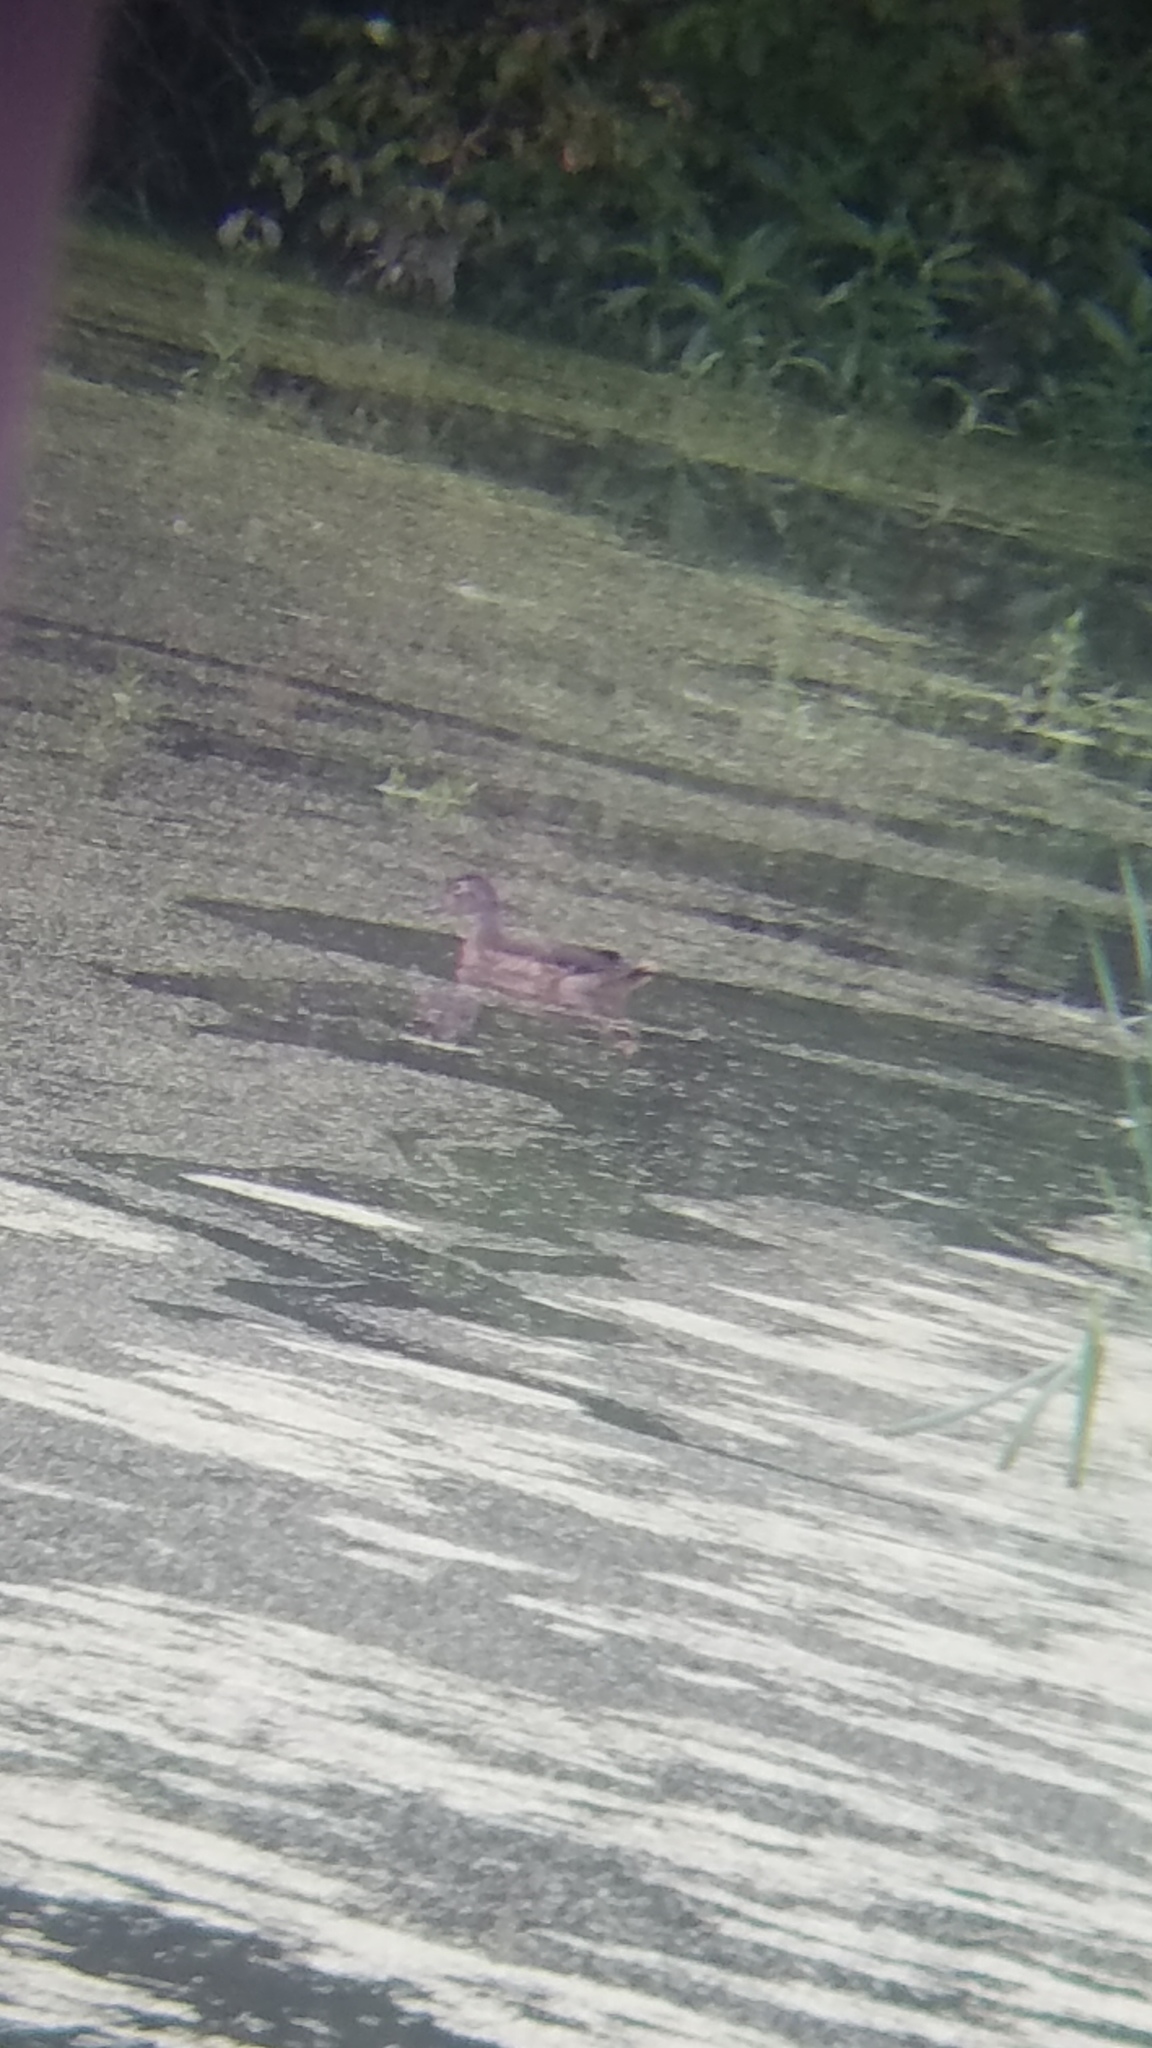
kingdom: Animalia
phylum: Chordata
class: Aves
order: Anseriformes
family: Anatidae
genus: Aix
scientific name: Aix sponsa
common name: Wood duck
